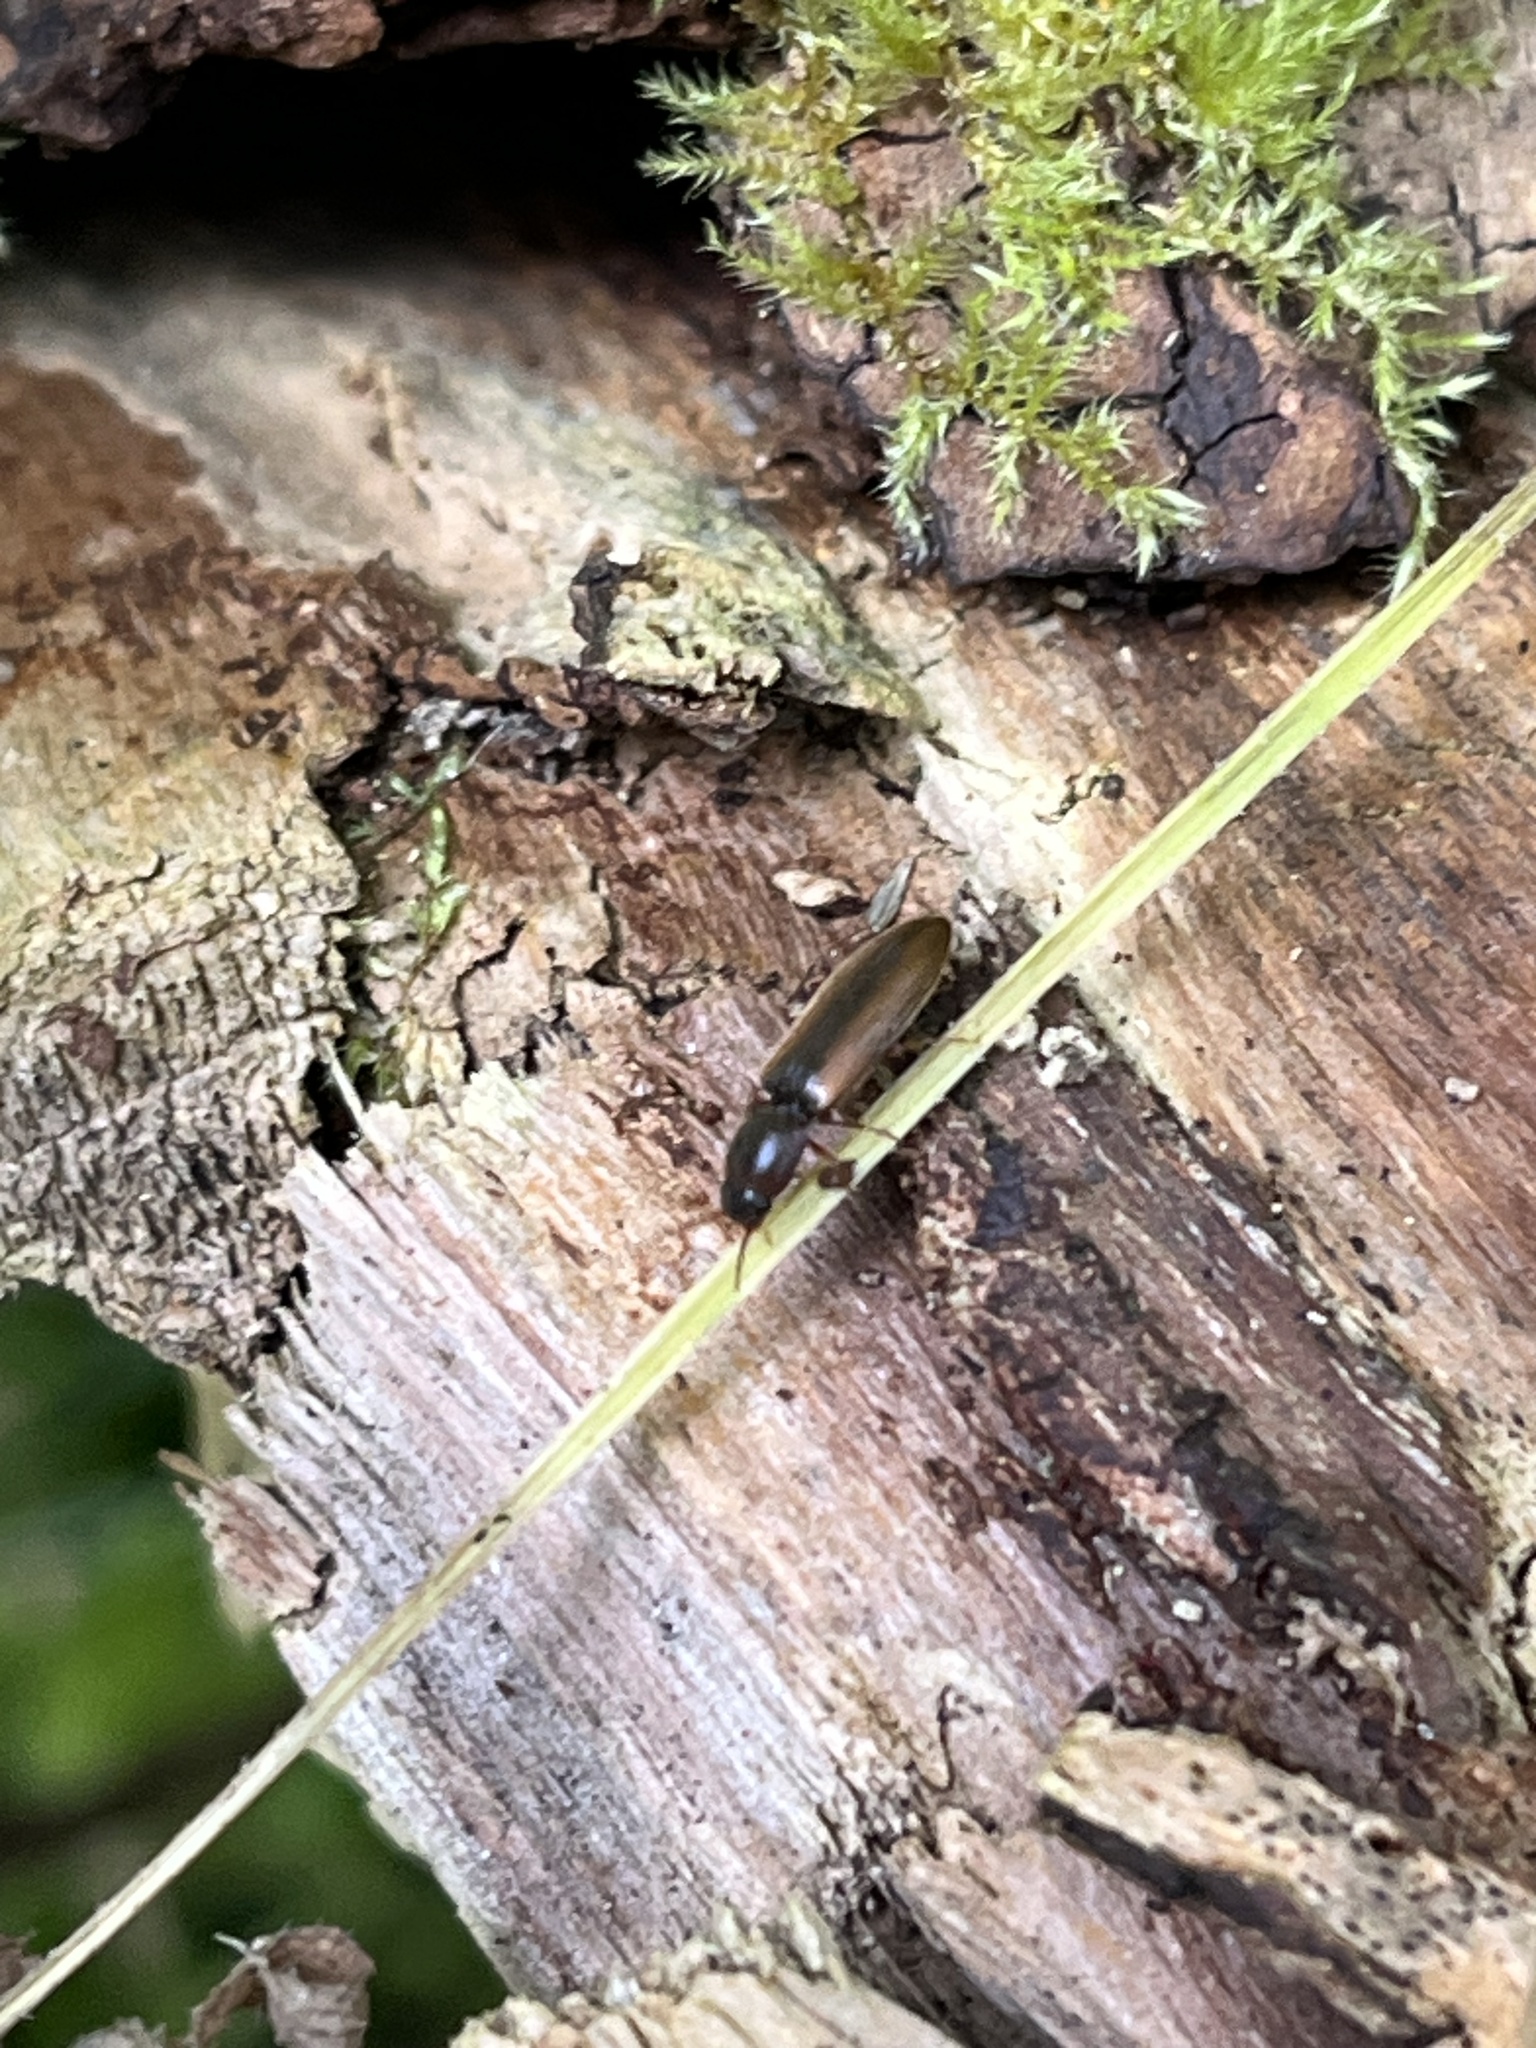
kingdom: Animalia
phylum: Arthropoda
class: Insecta
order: Coleoptera
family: Elateridae
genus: Dalopius
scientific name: Dalopius marginatus
